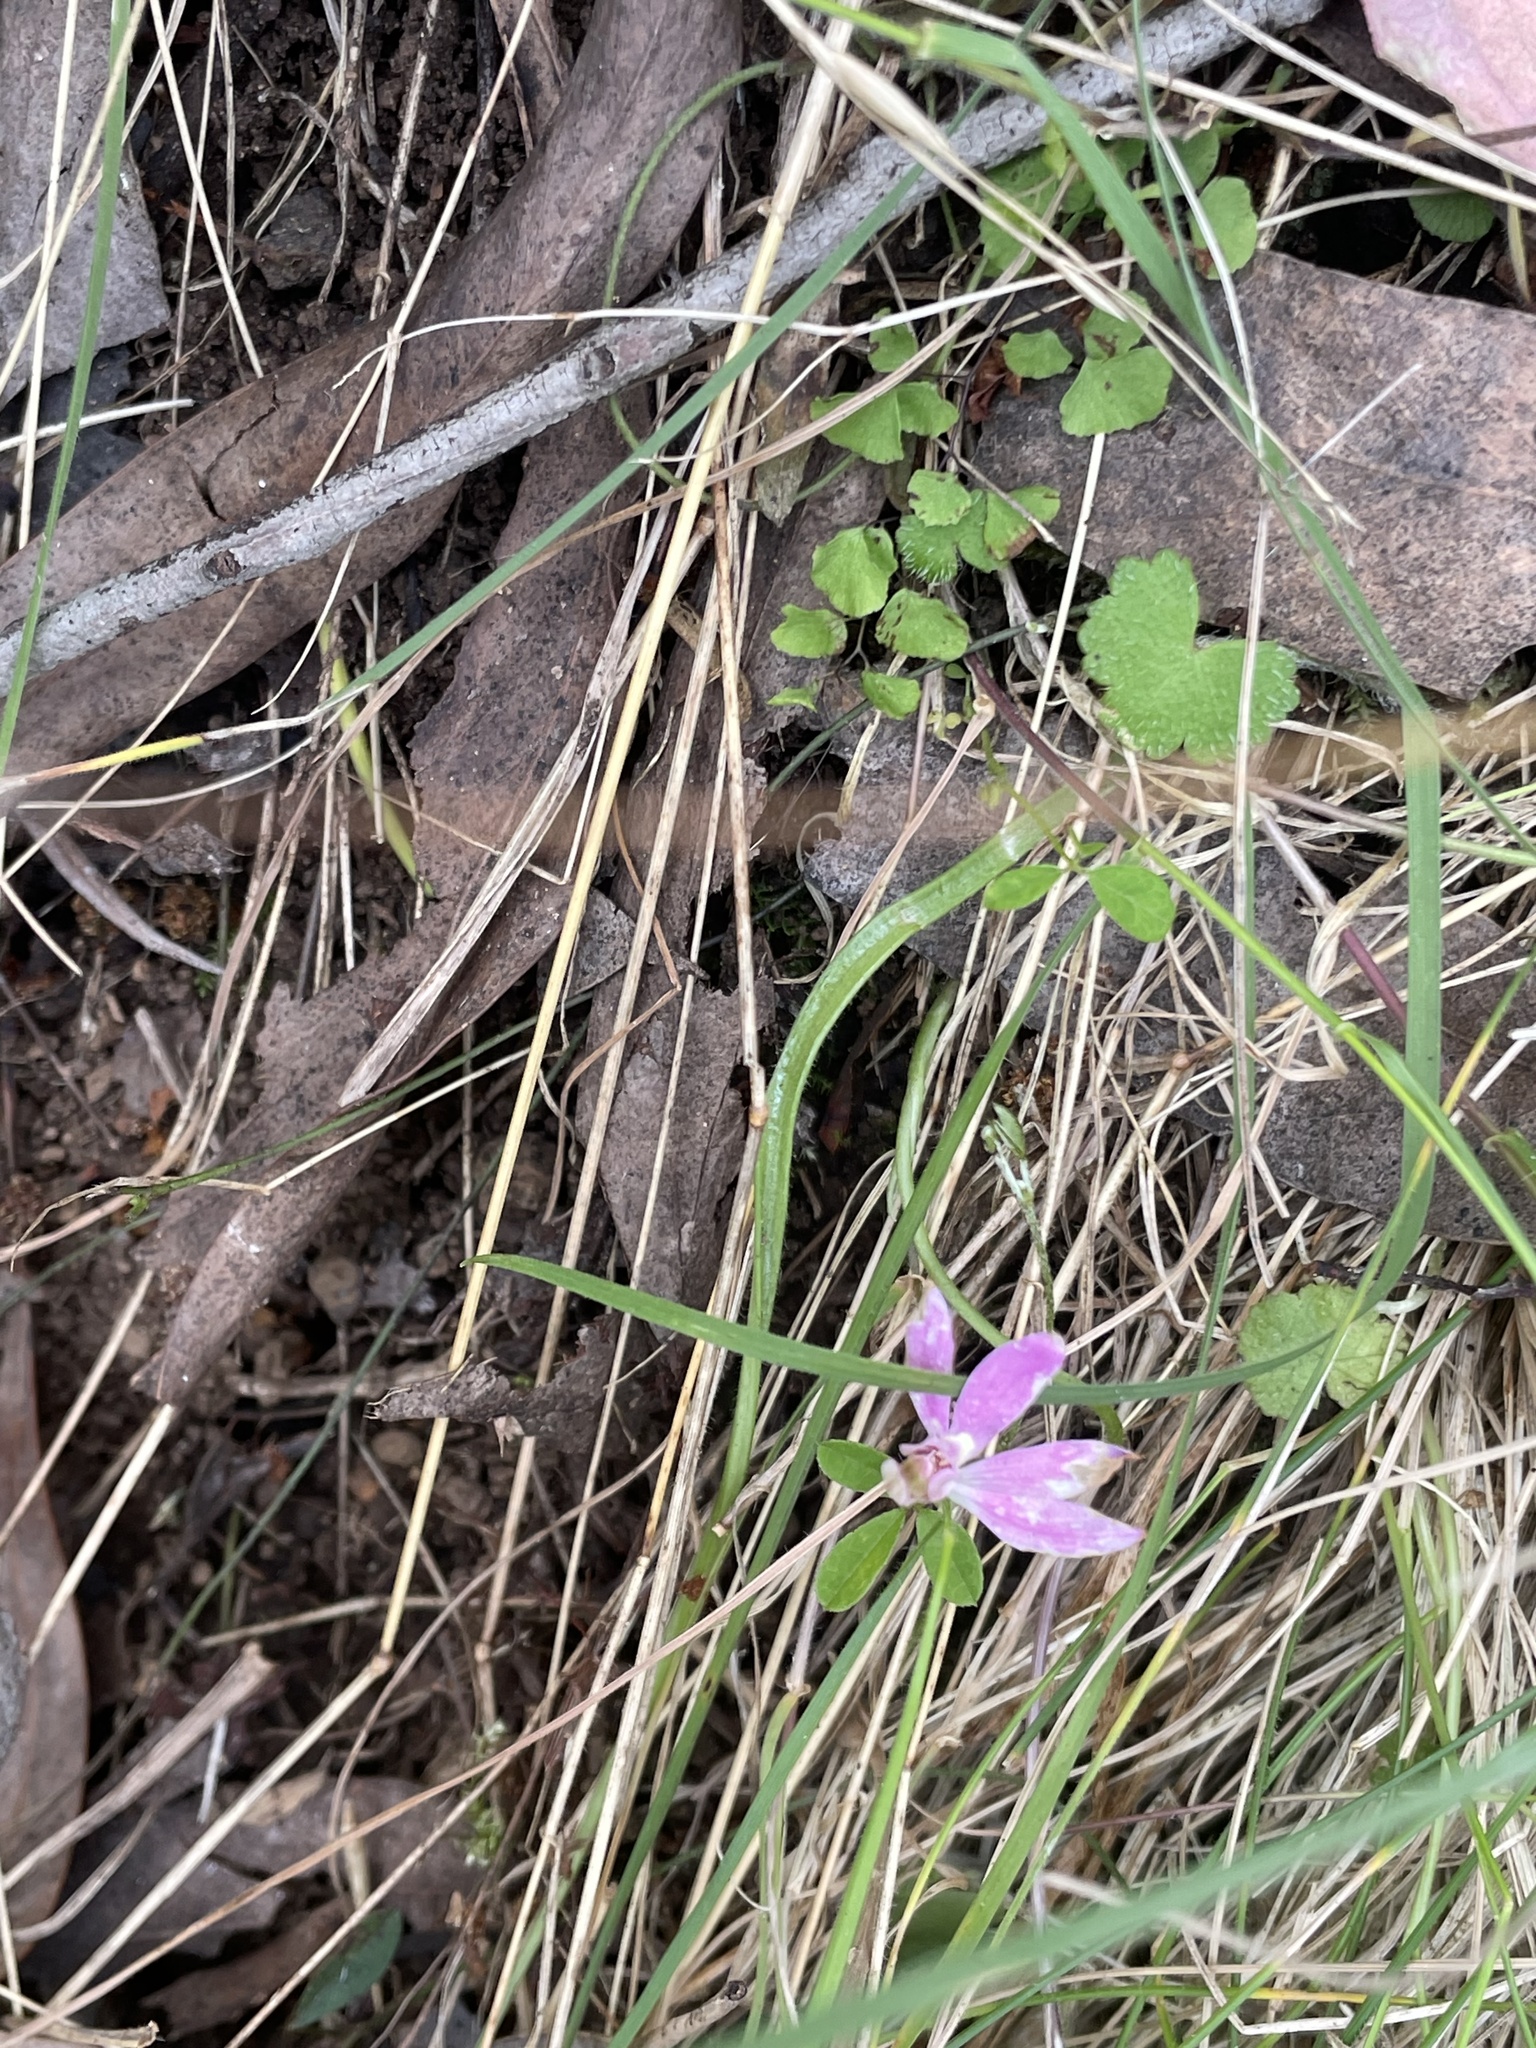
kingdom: Plantae
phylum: Tracheophyta
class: Liliopsida
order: Asparagales
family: Orchidaceae
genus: Caladenia
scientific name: Caladenia carnea
